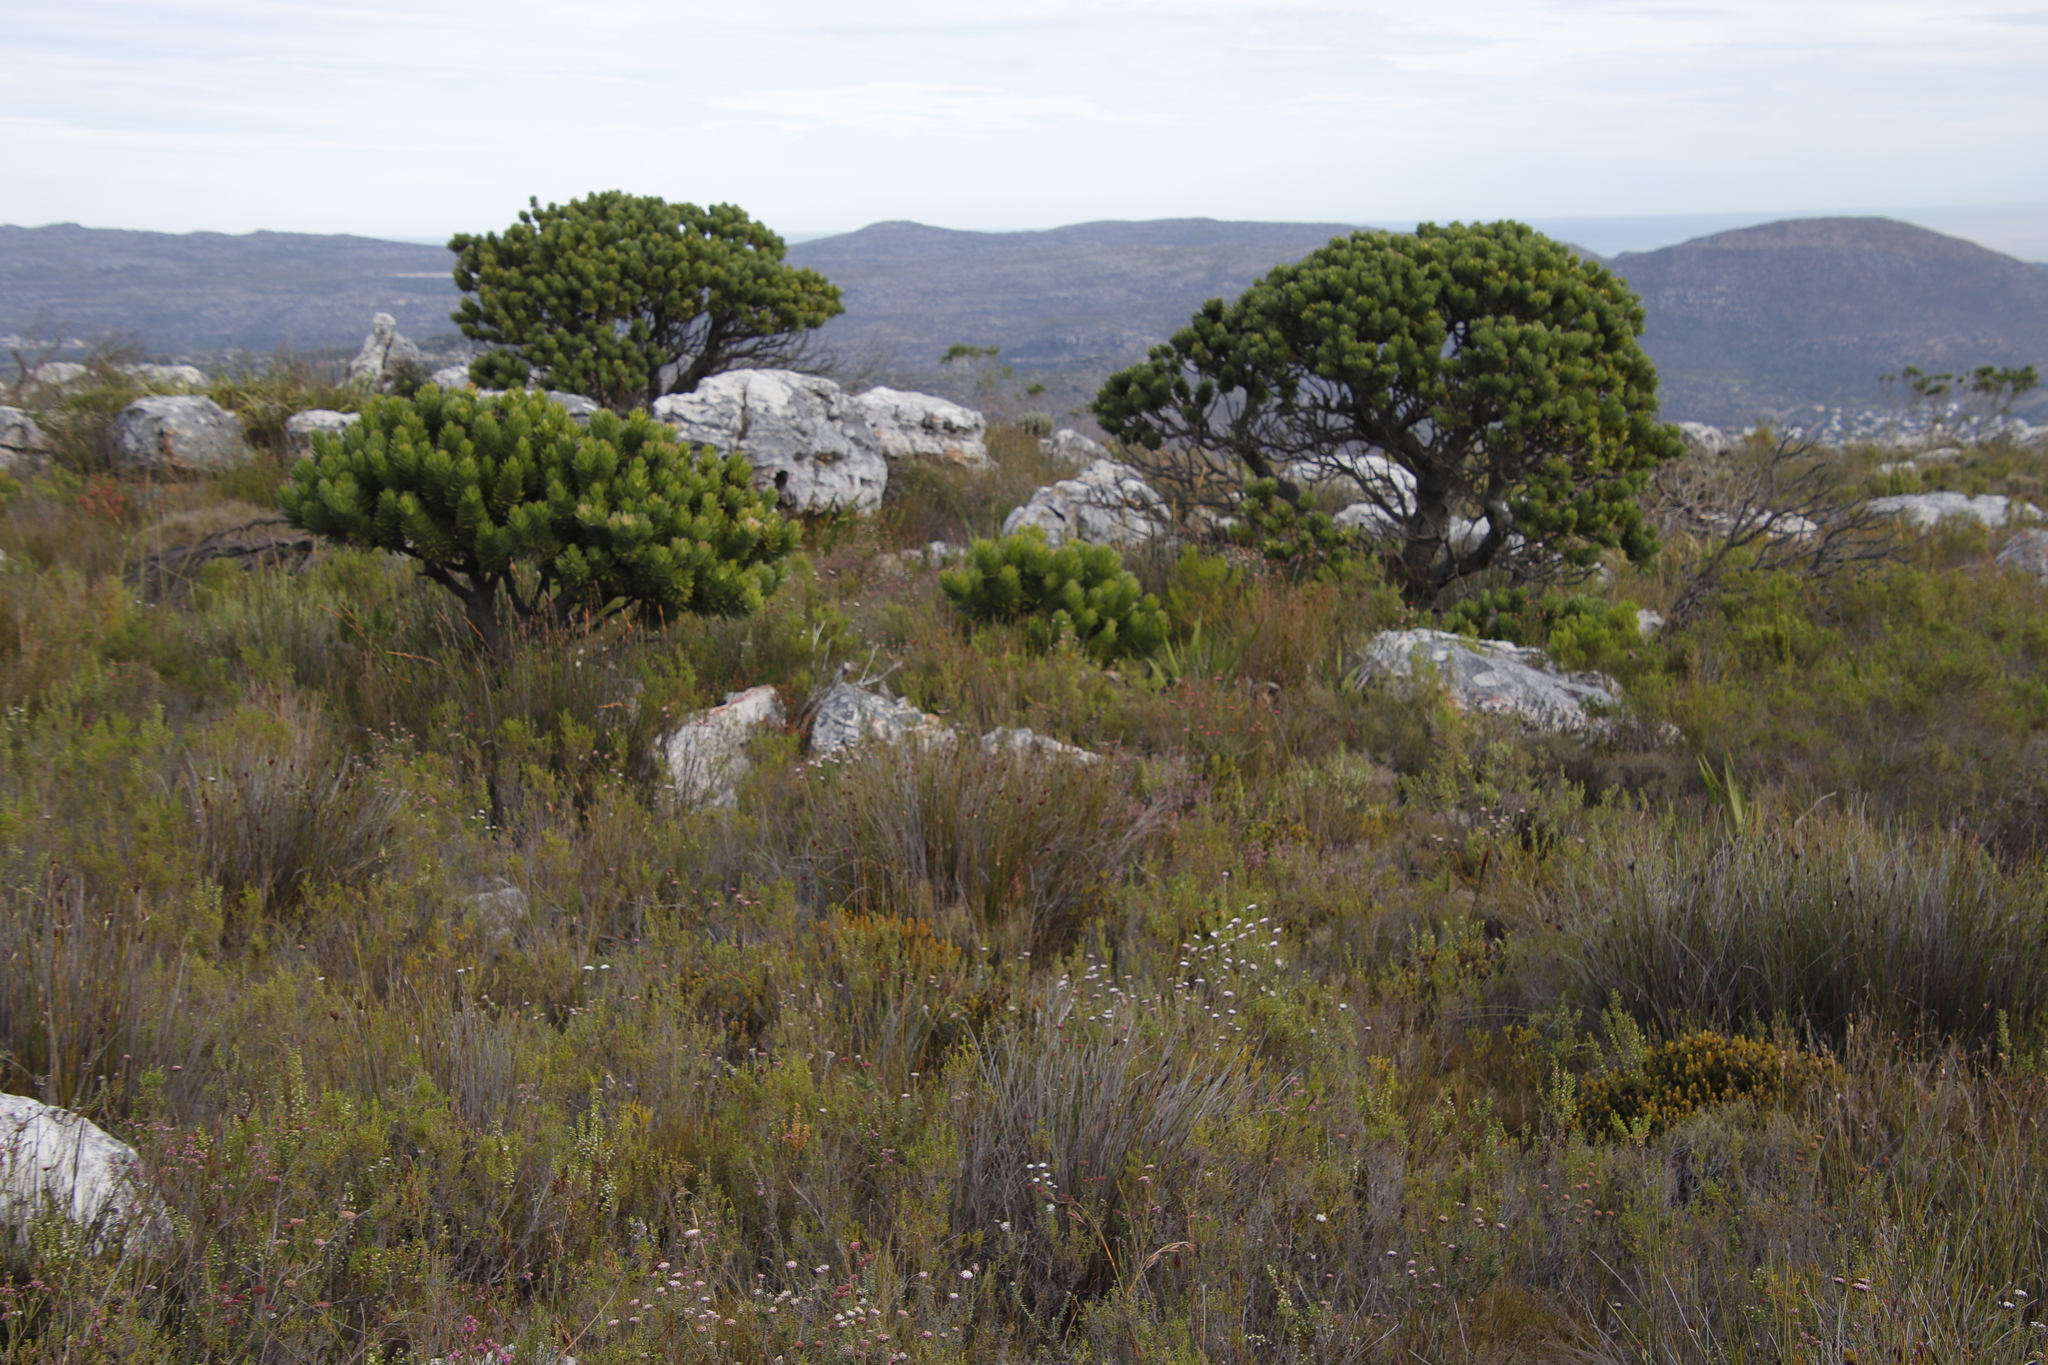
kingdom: Plantae
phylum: Tracheophyta
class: Magnoliopsida
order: Proteales
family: Proteaceae
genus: Leucospermum
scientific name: Leucospermum conocarpodendron
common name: Tree pincushion
